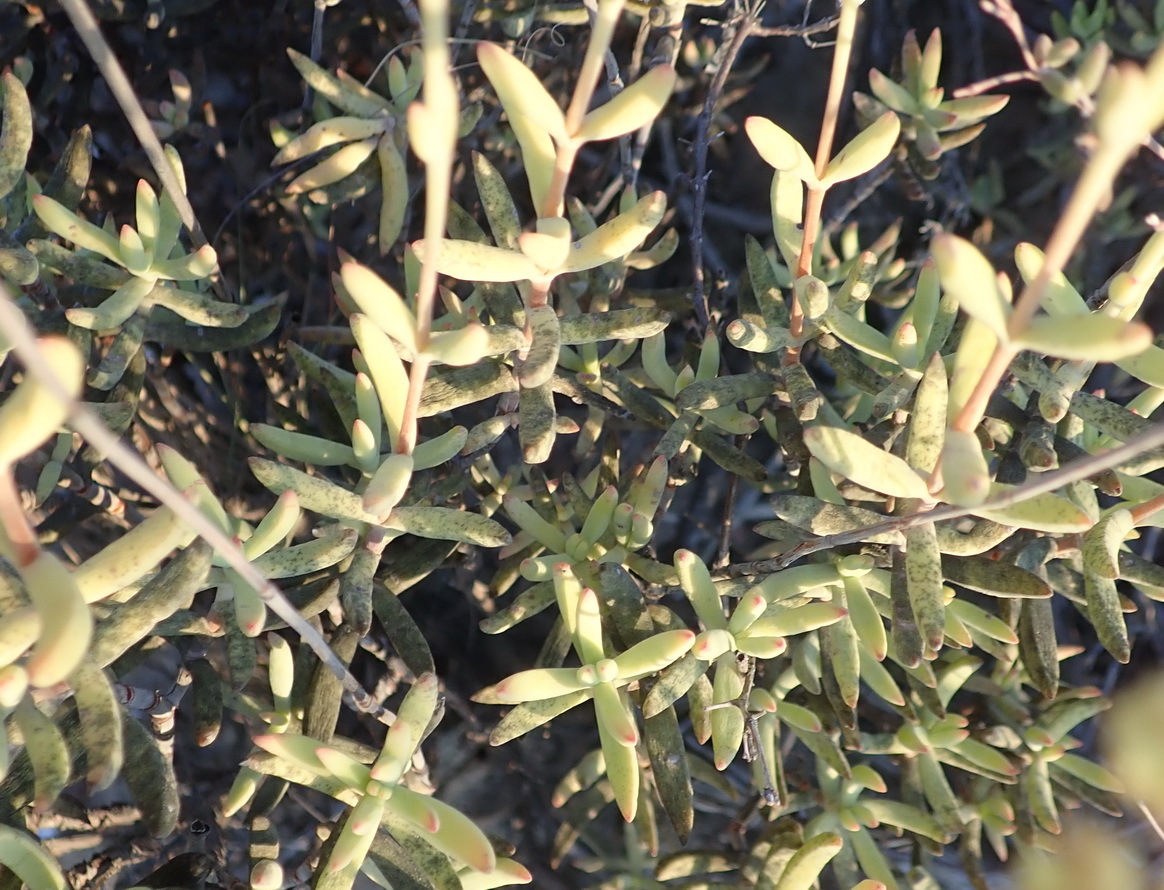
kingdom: Plantae
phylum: Tracheophyta
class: Magnoliopsida
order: Saxifragales
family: Crassulaceae
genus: Crassula
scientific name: Crassula mollis
